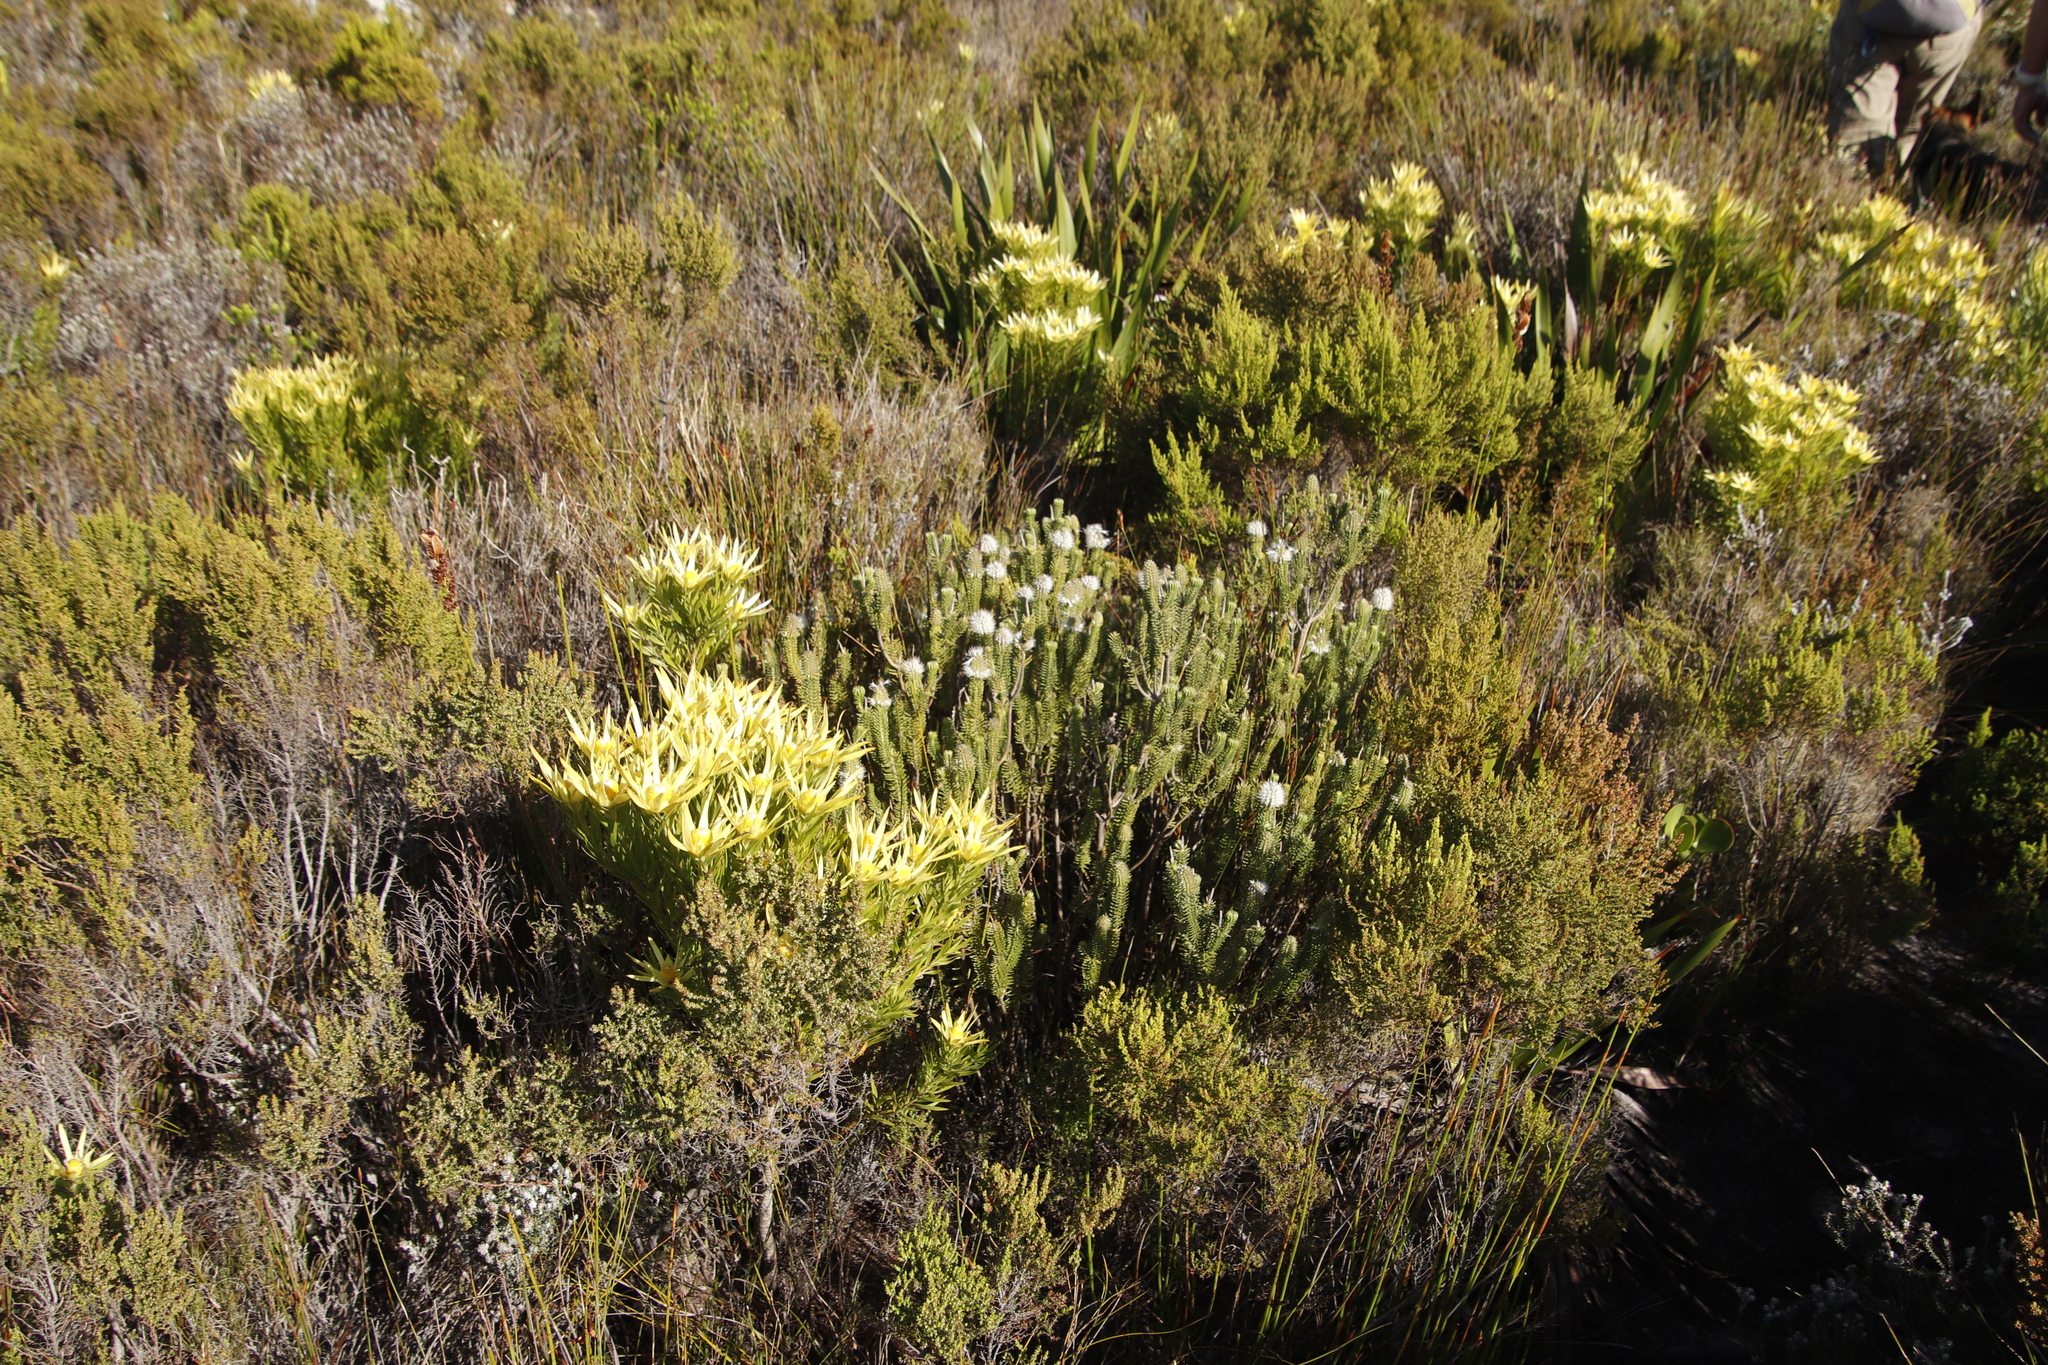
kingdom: Plantae
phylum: Tracheophyta
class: Magnoliopsida
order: Lamiales
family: Stilbaceae
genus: Stilbe
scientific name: Stilbe vestita
